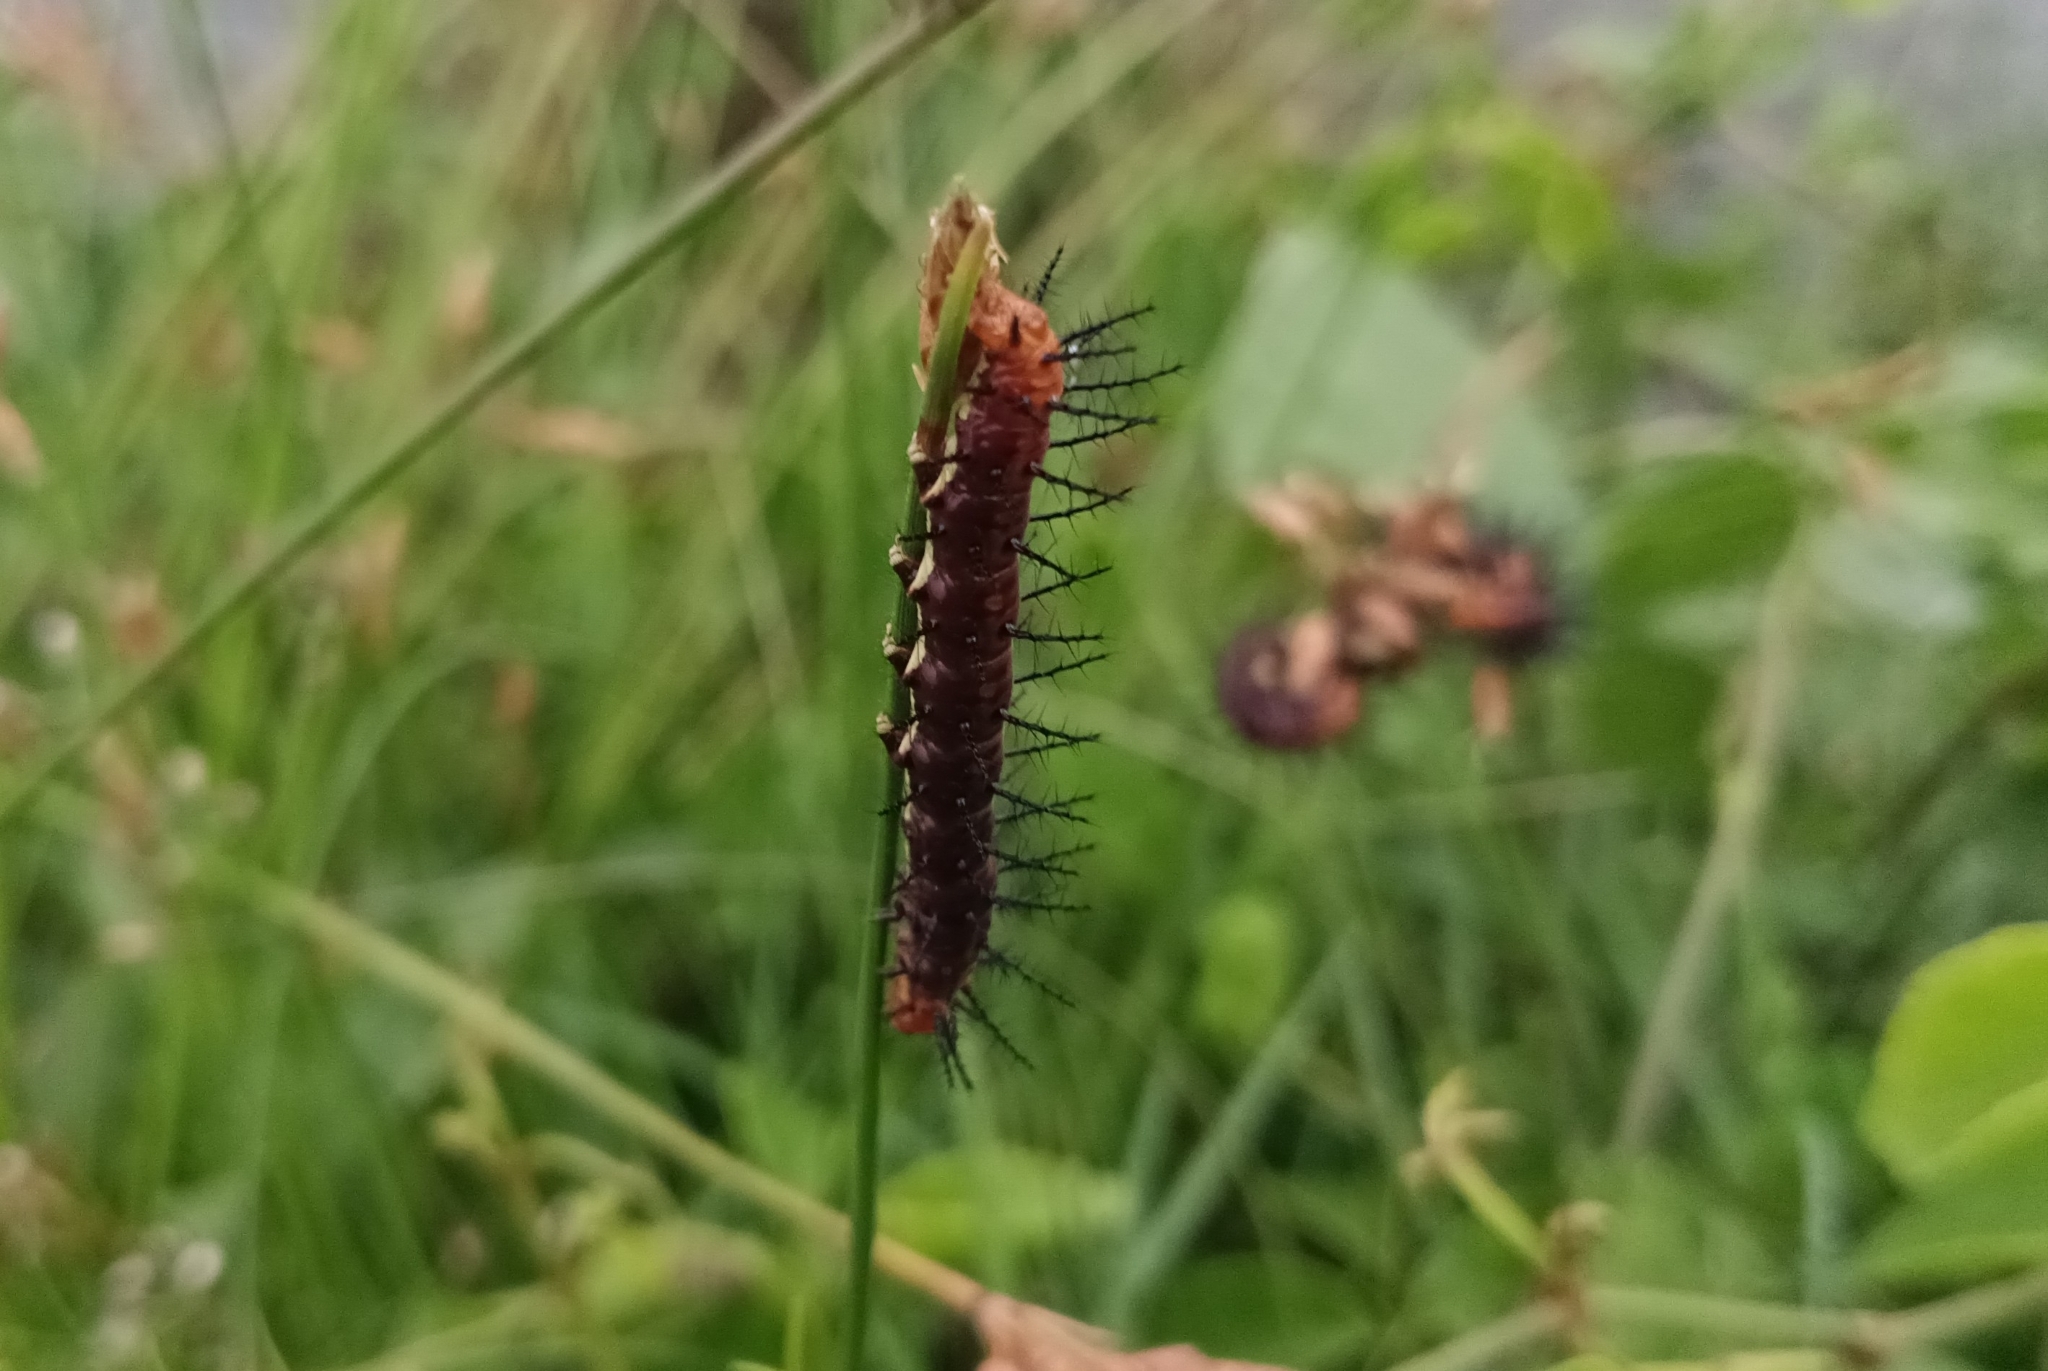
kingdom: Animalia
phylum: Arthropoda
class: Insecta
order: Lepidoptera
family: Nymphalidae
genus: Acraea
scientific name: Acraea terpsicore
